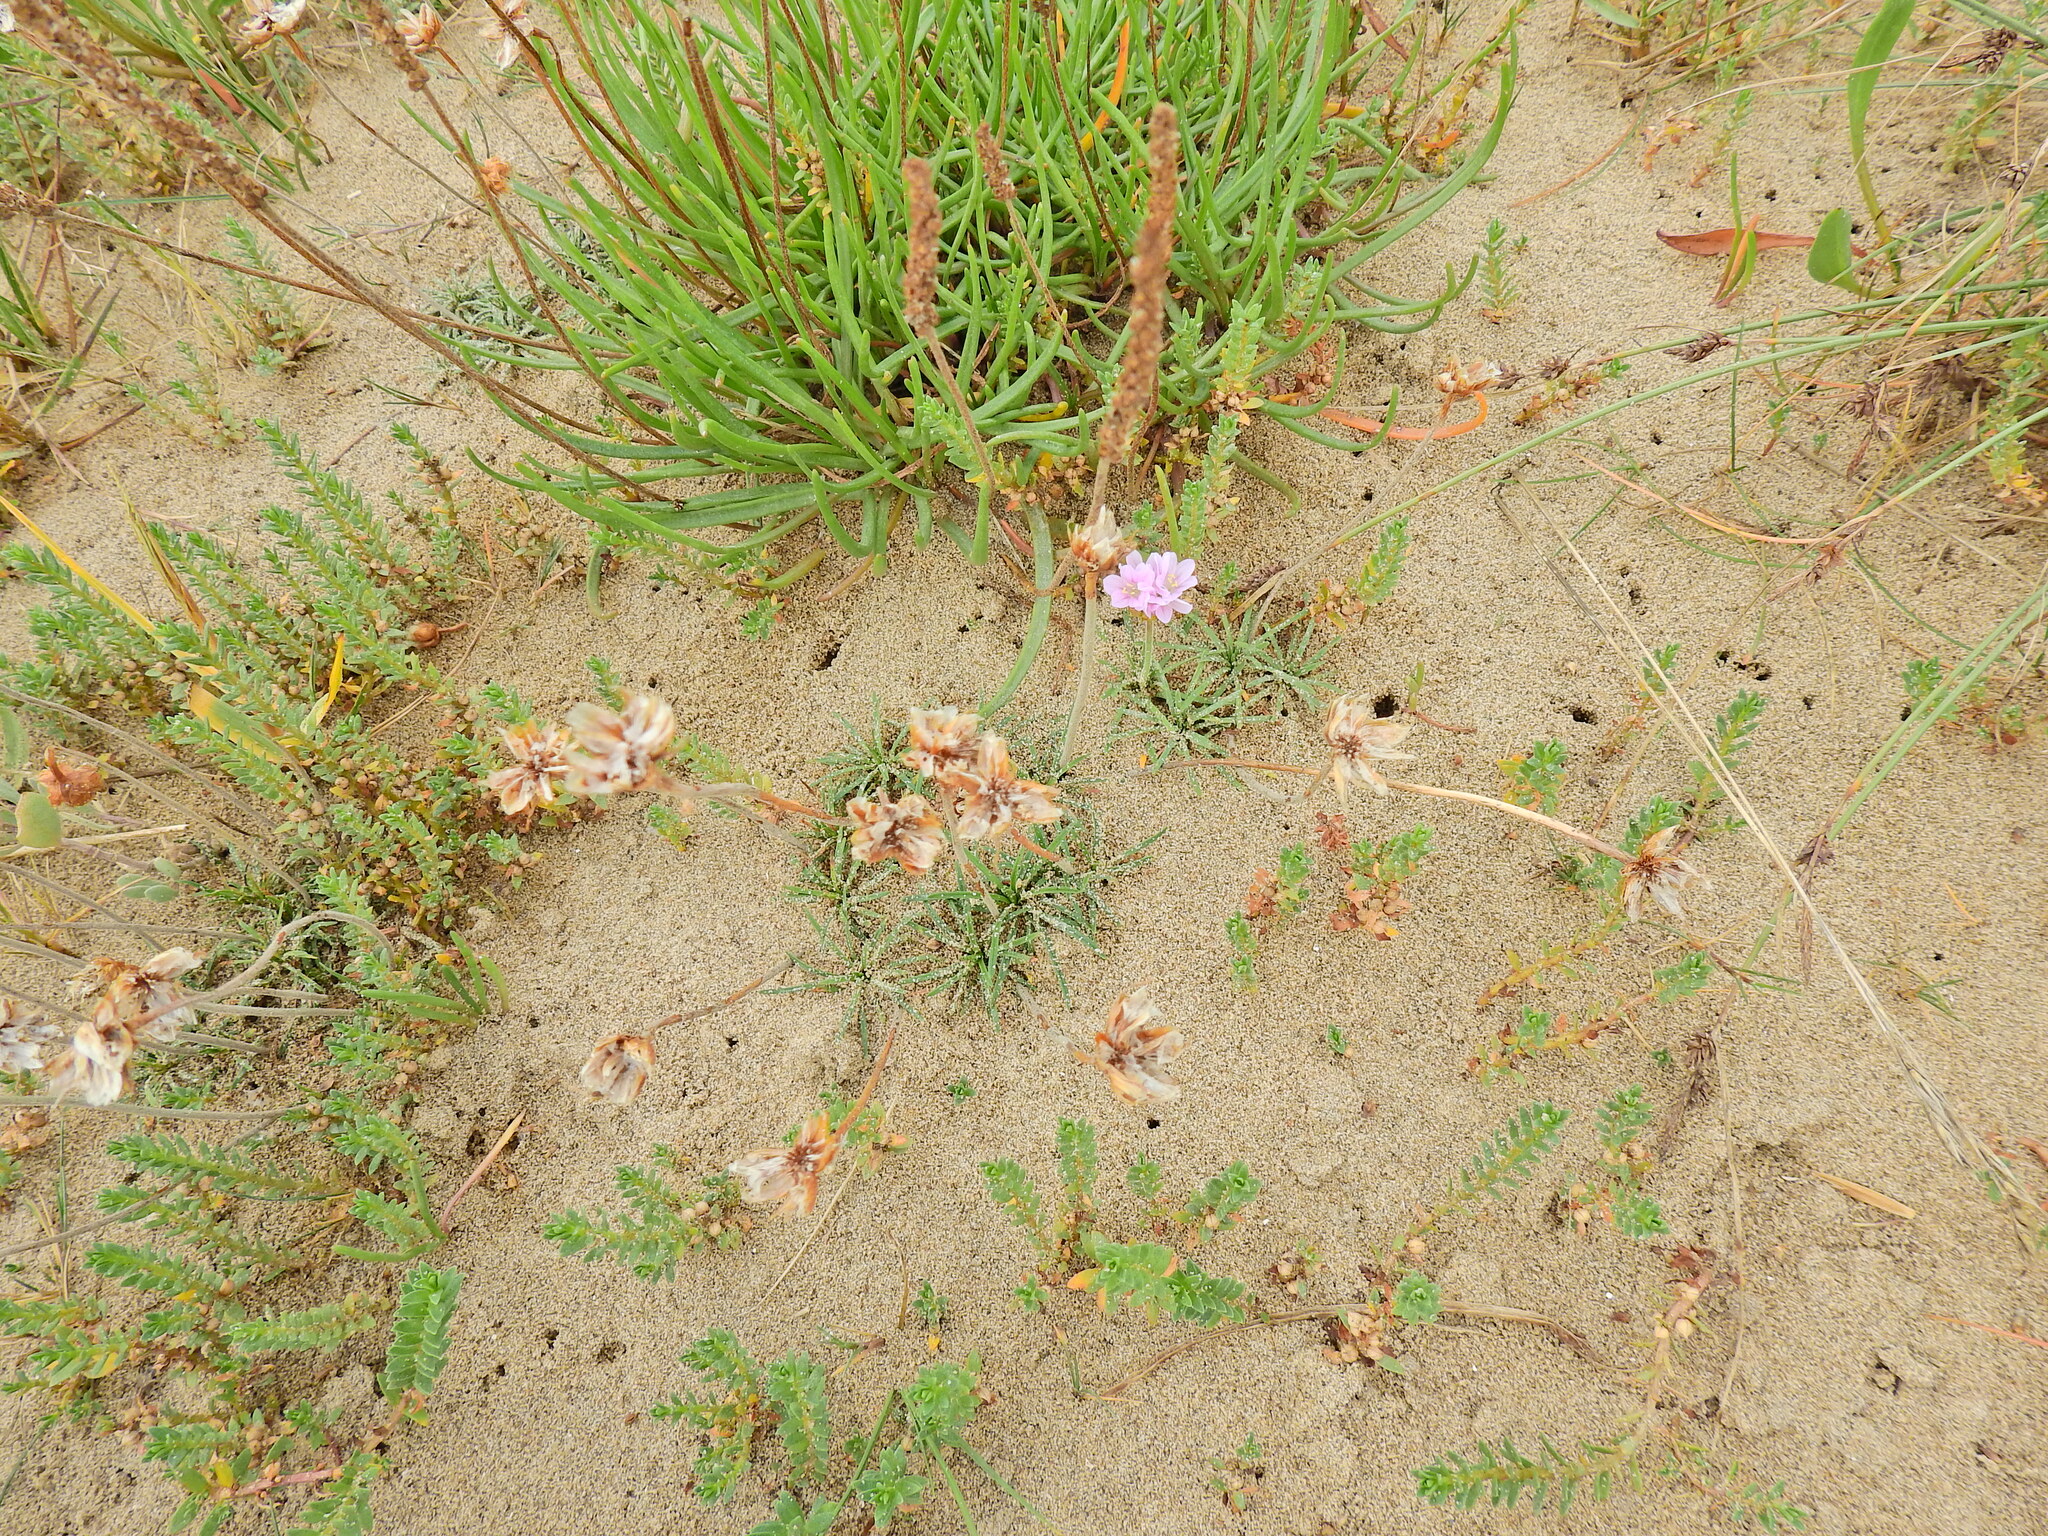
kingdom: Plantae
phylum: Tracheophyta
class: Magnoliopsida
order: Caryophyllales
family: Plumbaginaceae
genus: Armeria
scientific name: Armeria maritima
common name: Thrift
